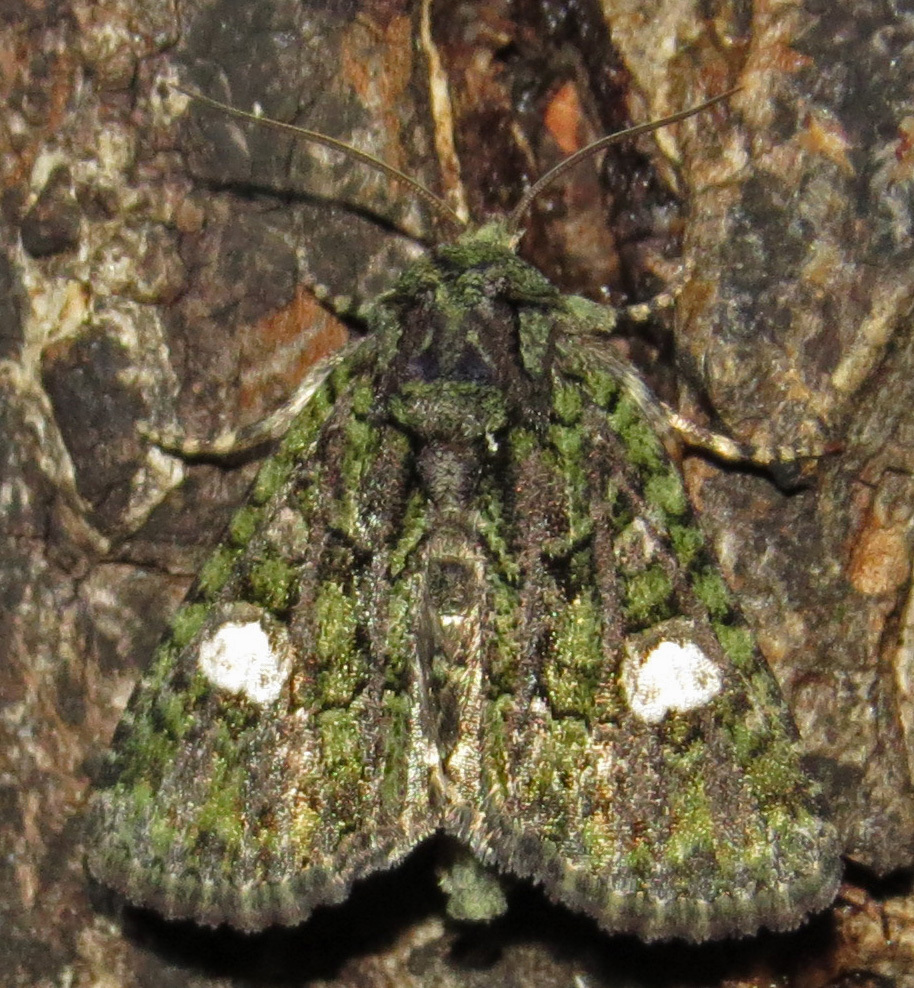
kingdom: Animalia
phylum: Arthropoda
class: Insecta
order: Lepidoptera
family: Noctuidae
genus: Phosphila
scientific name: Phosphila miselioides
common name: Spotted phosphila moth
